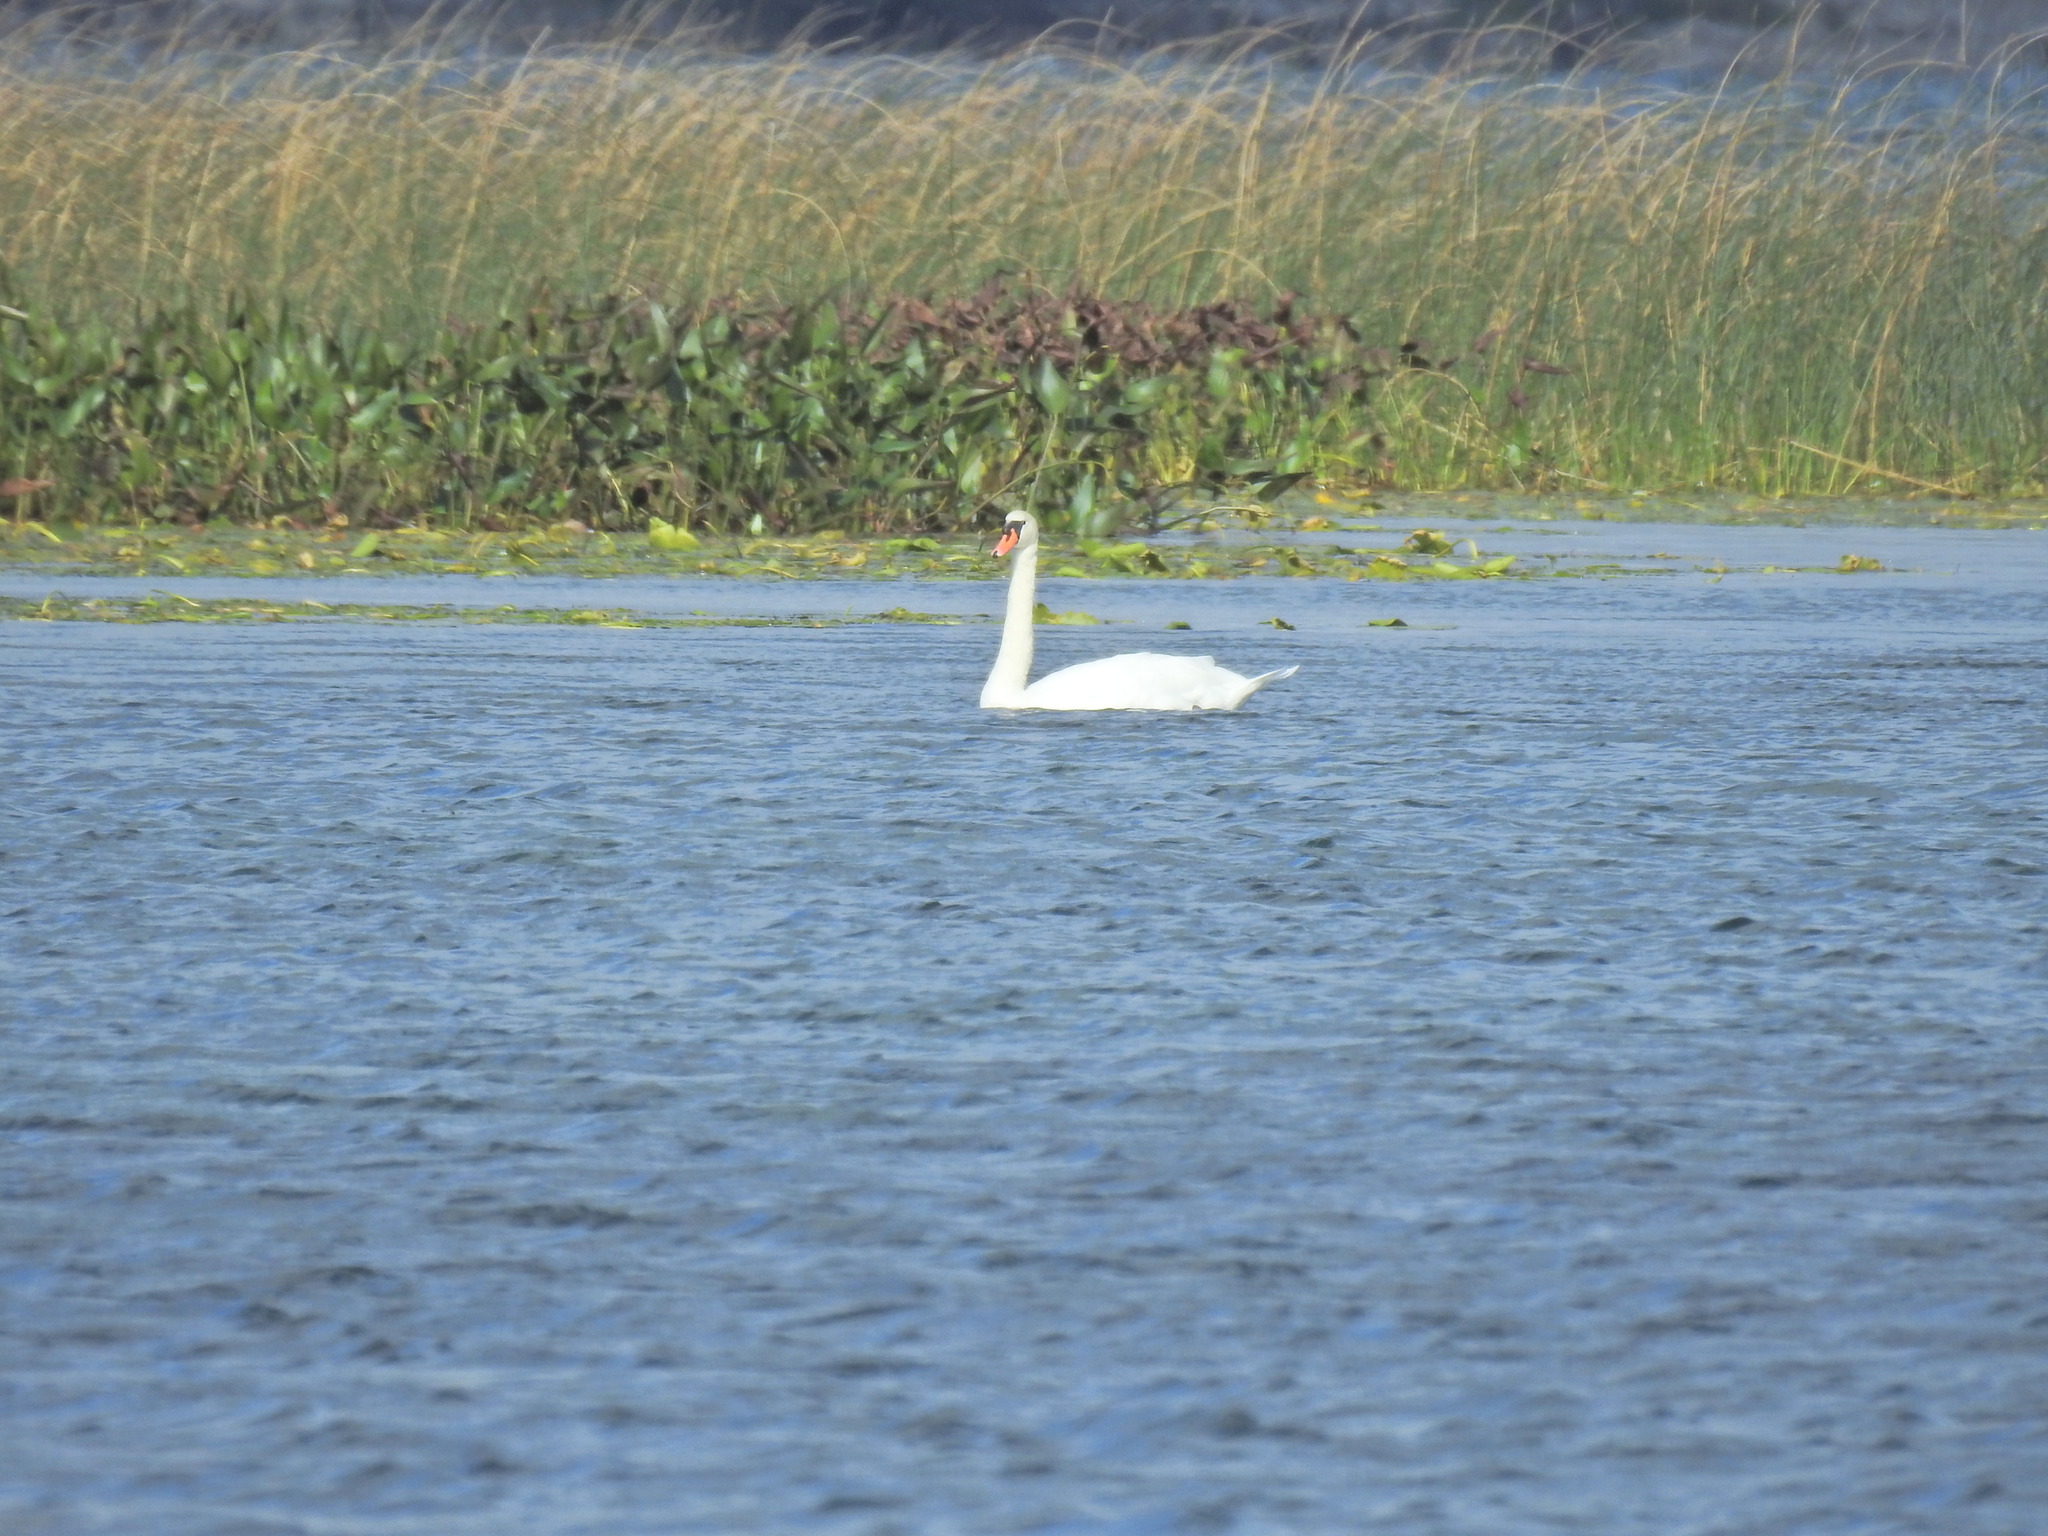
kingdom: Animalia
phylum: Chordata
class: Aves
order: Anseriformes
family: Anatidae
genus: Cygnus
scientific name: Cygnus olor
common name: Mute swan
